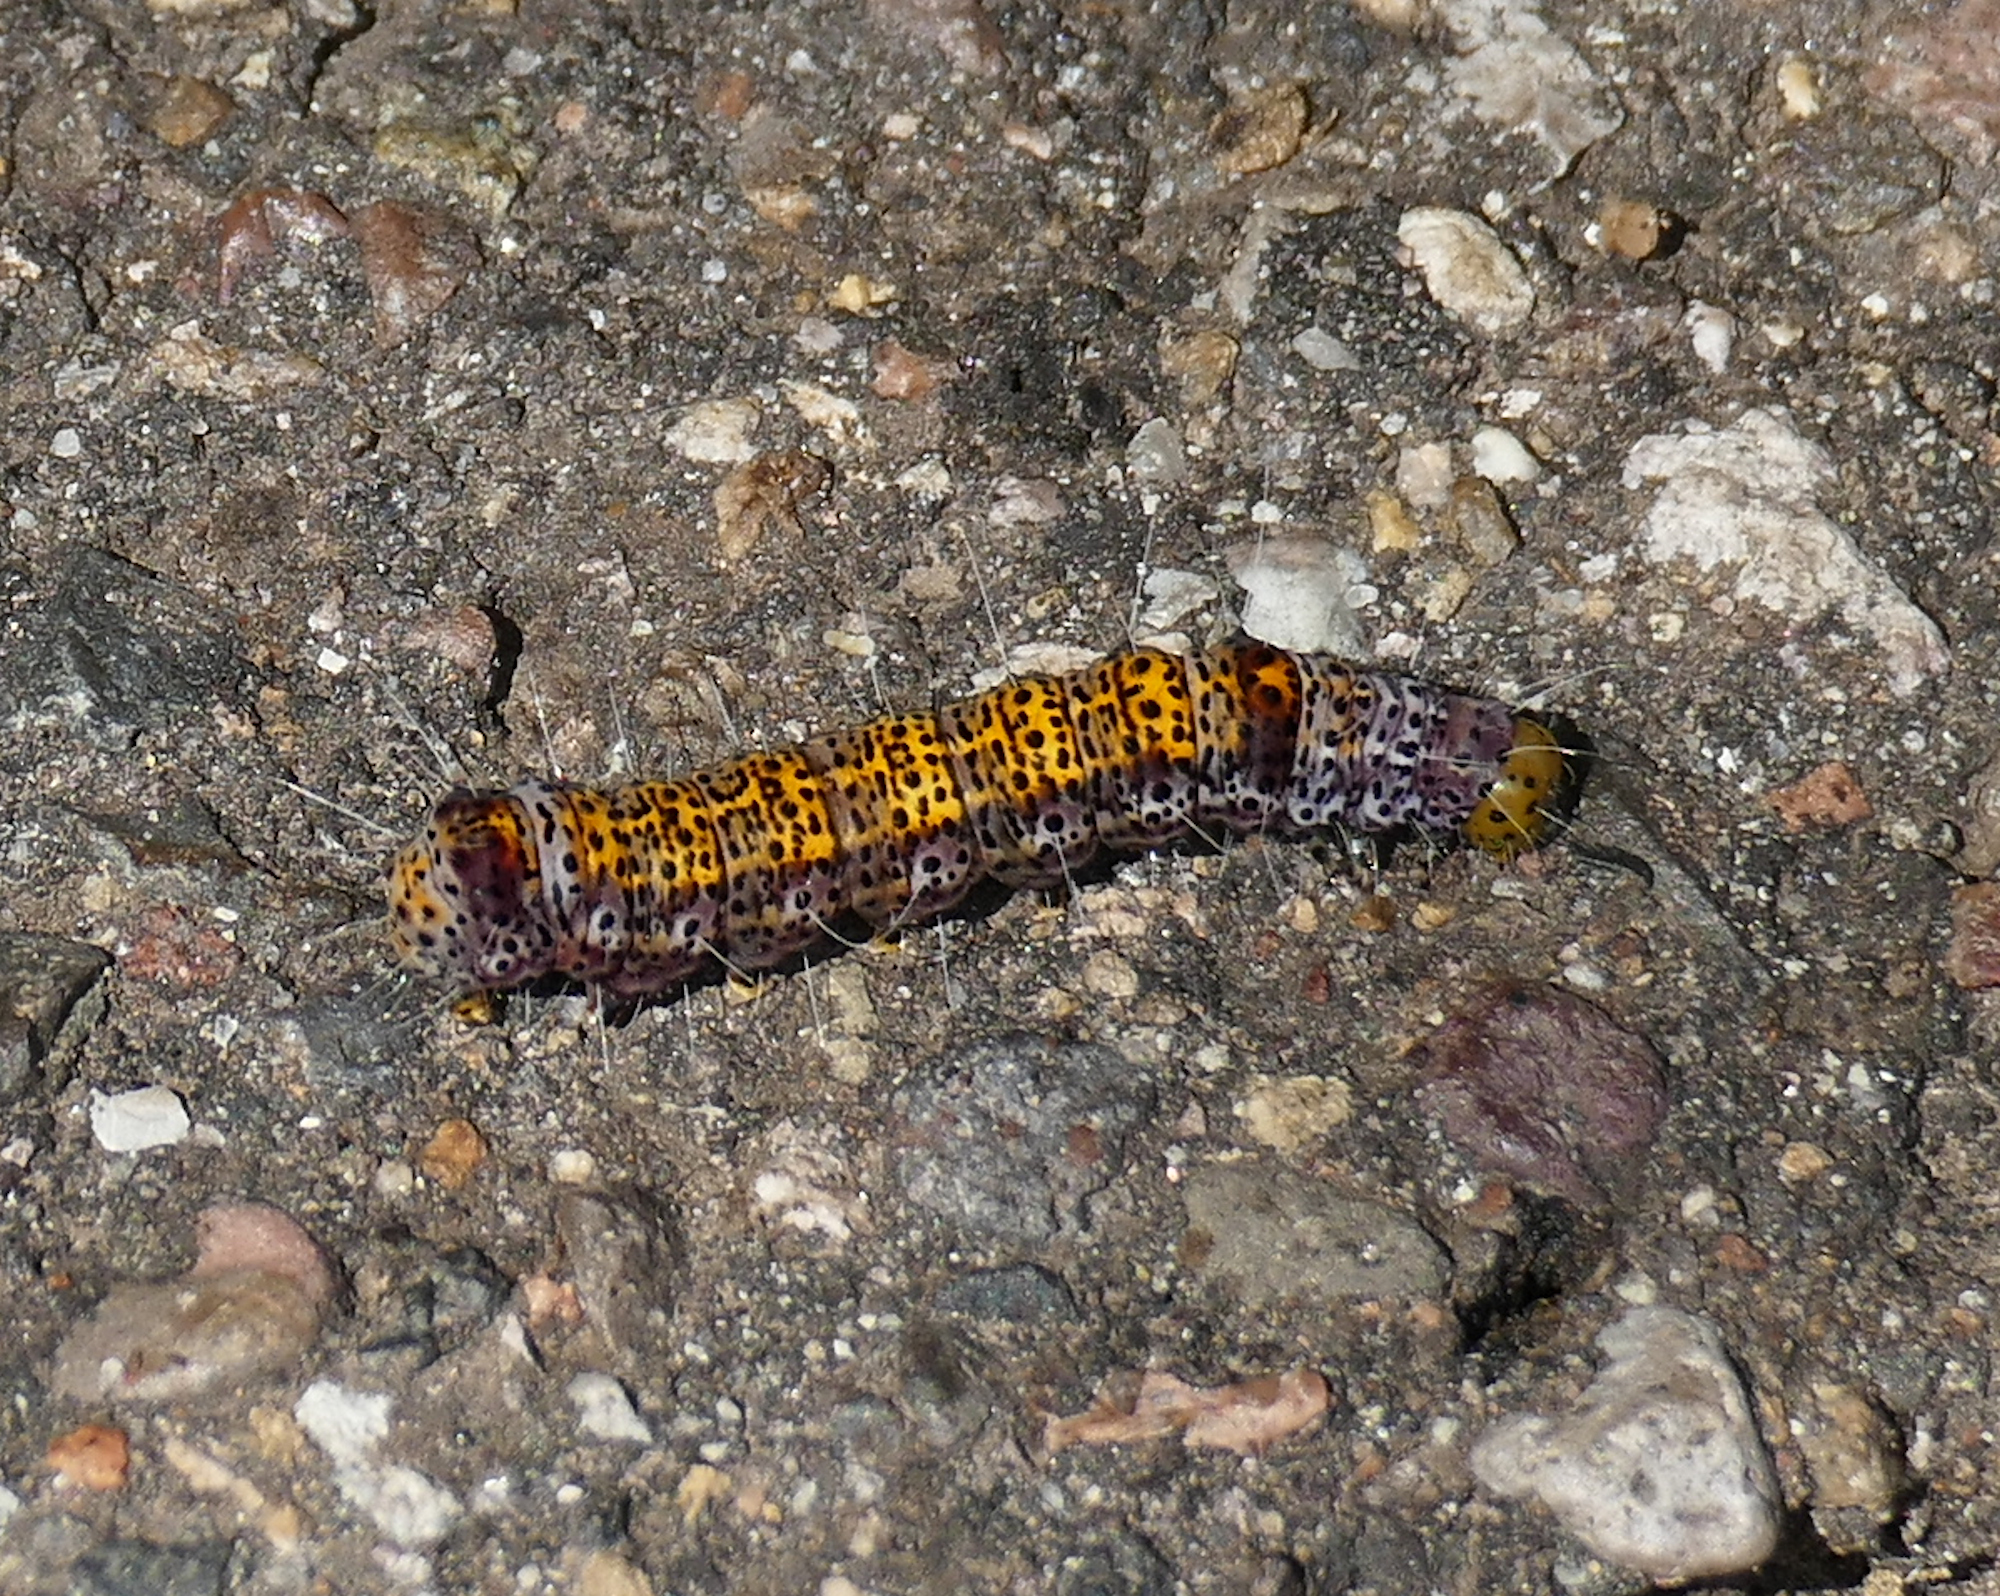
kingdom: Animalia
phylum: Arthropoda
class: Insecta
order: Lepidoptera
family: Noctuidae
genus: Gerra
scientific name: Gerra sevorsa
